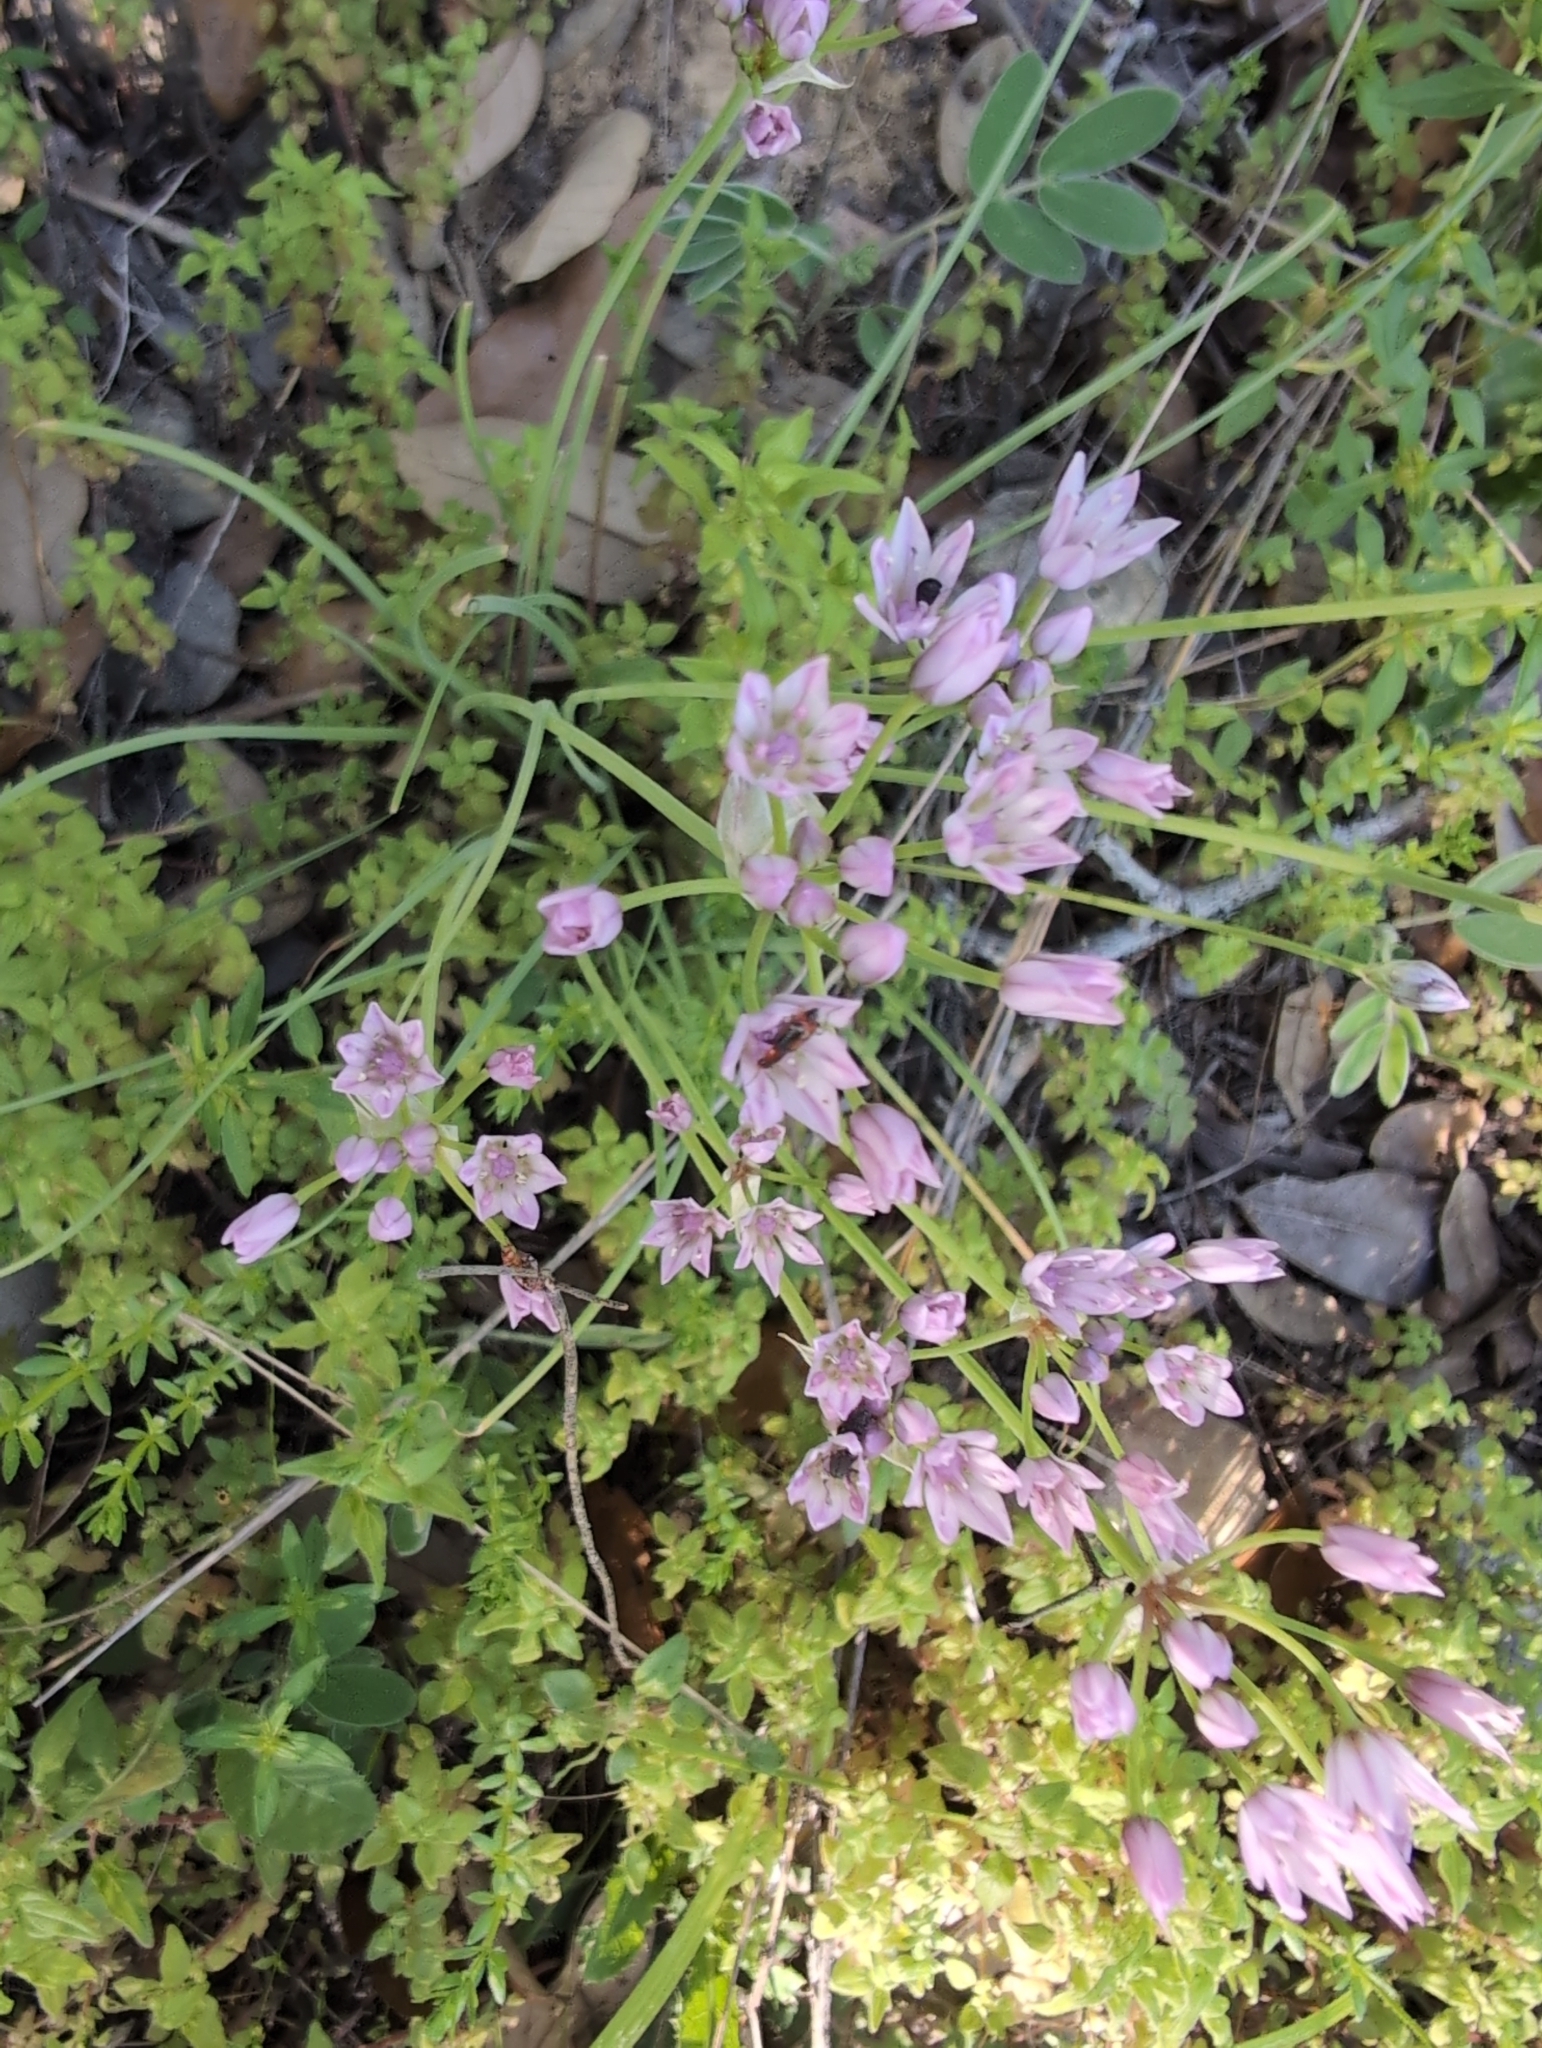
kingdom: Plantae
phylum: Tracheophyta
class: Liliopsida
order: Asparagales
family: Amaryllidaceae
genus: Allium
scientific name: Allium drummondii
